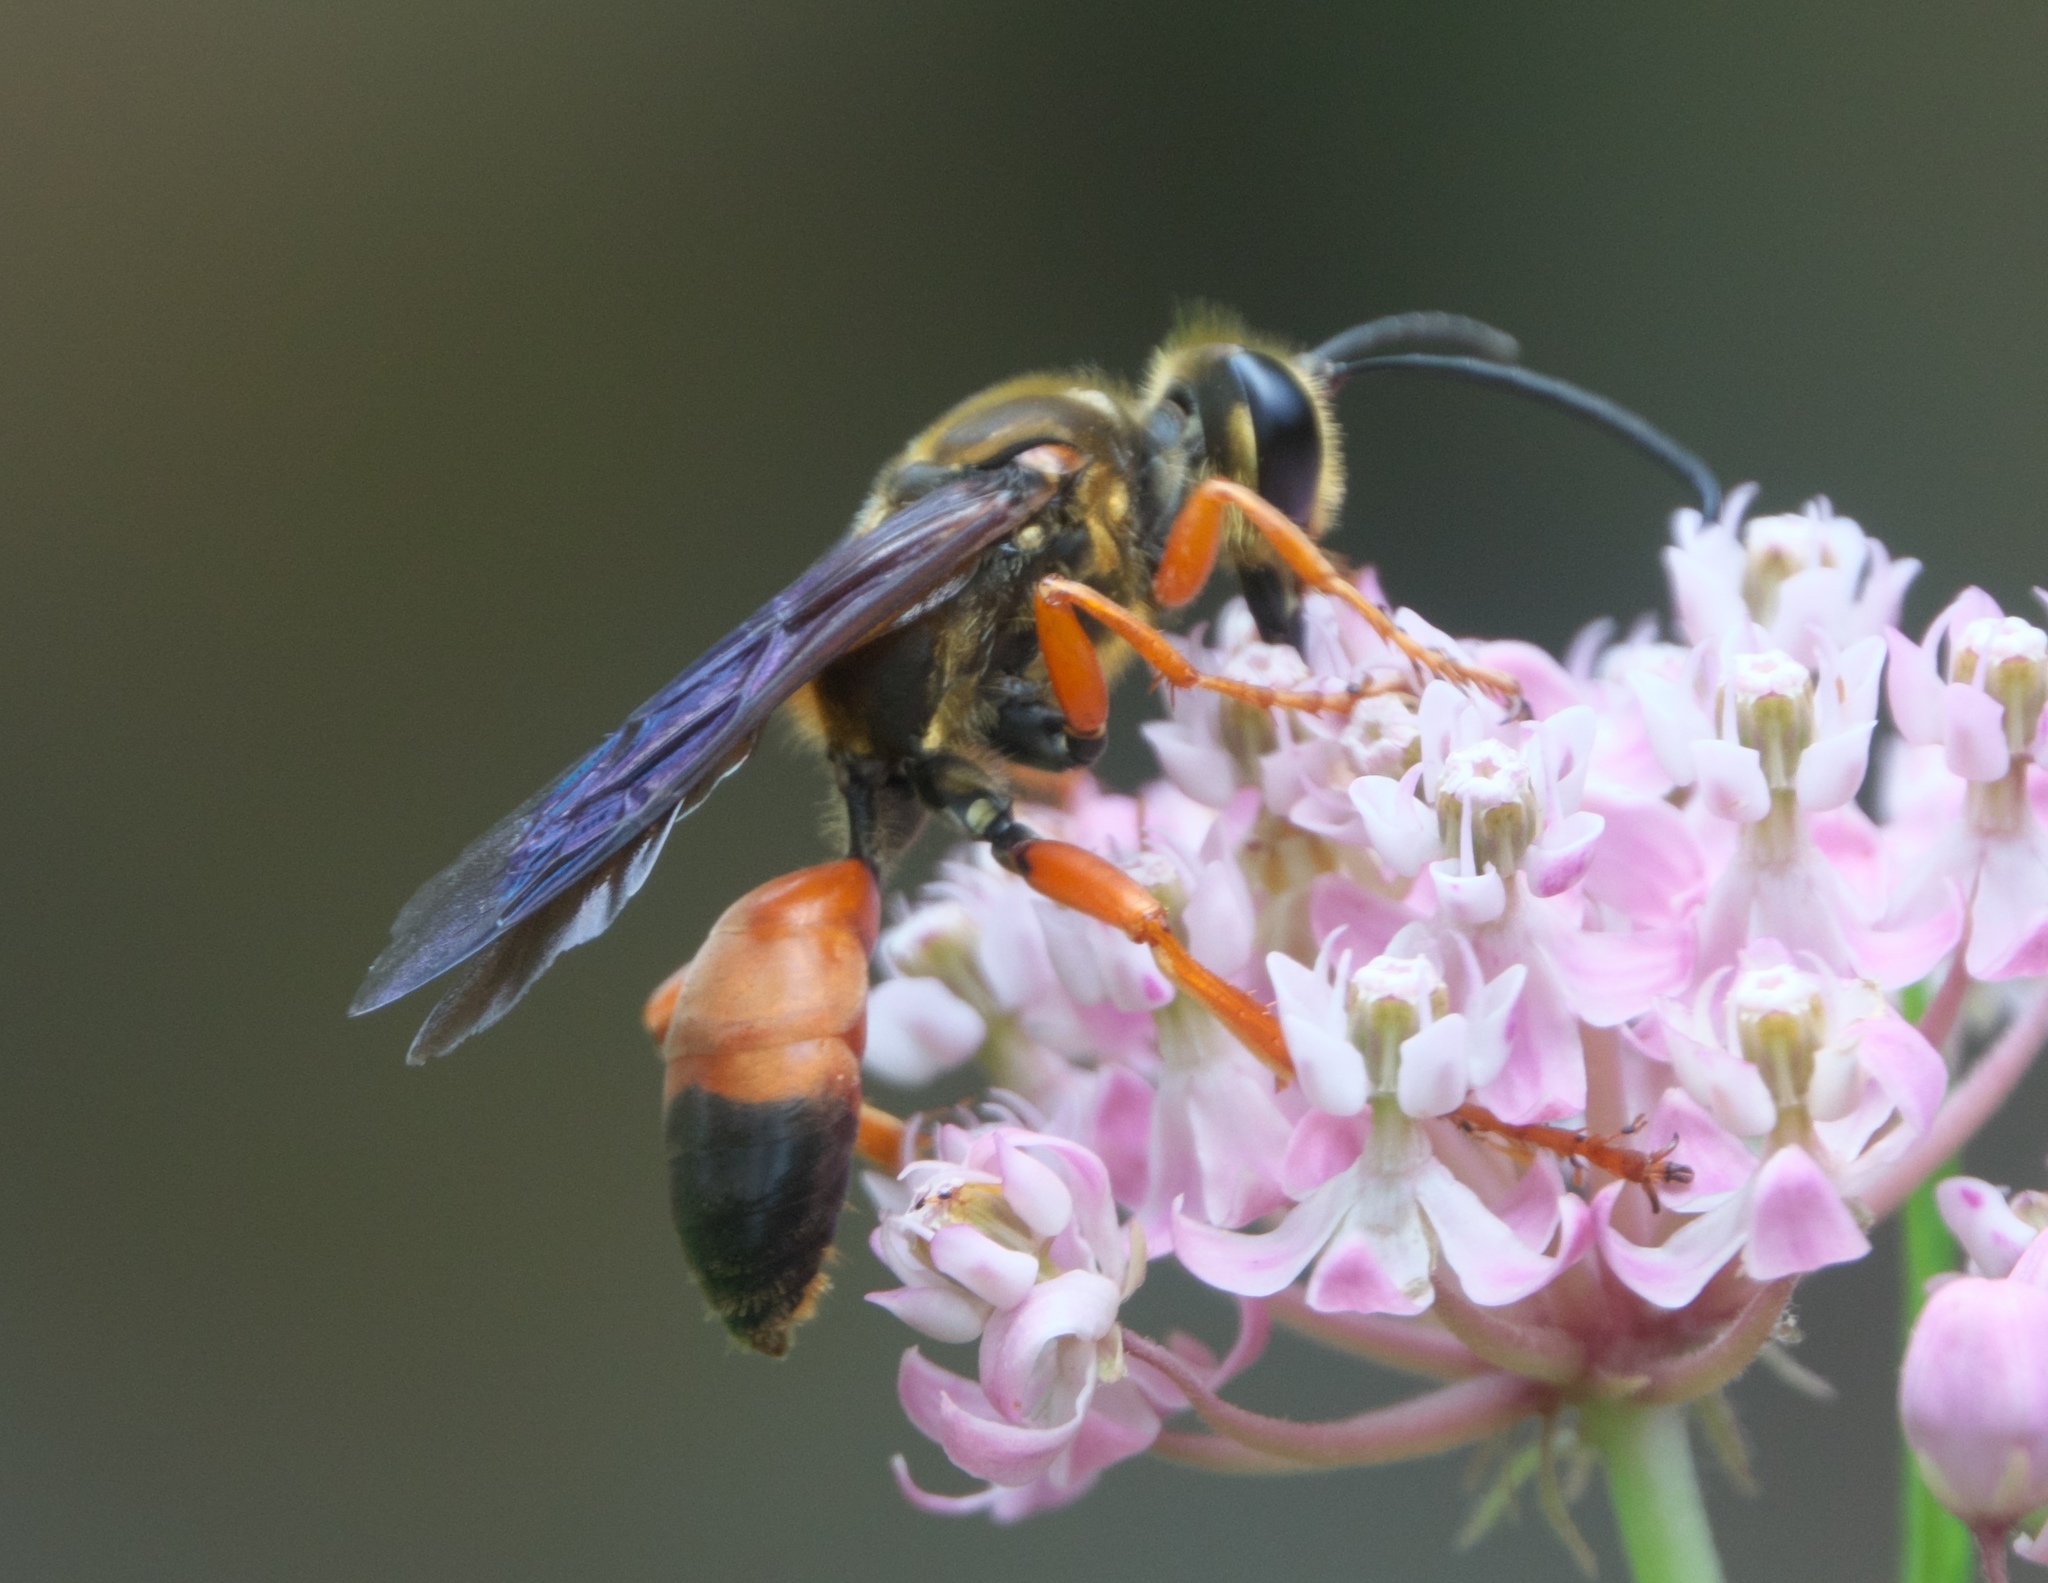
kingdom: Animalia
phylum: Arthropoda
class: Insecta
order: Hymenoptera
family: Sphecidae
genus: Sphex
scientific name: Sphex ichneumoneus
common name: Great golden digger wasp
